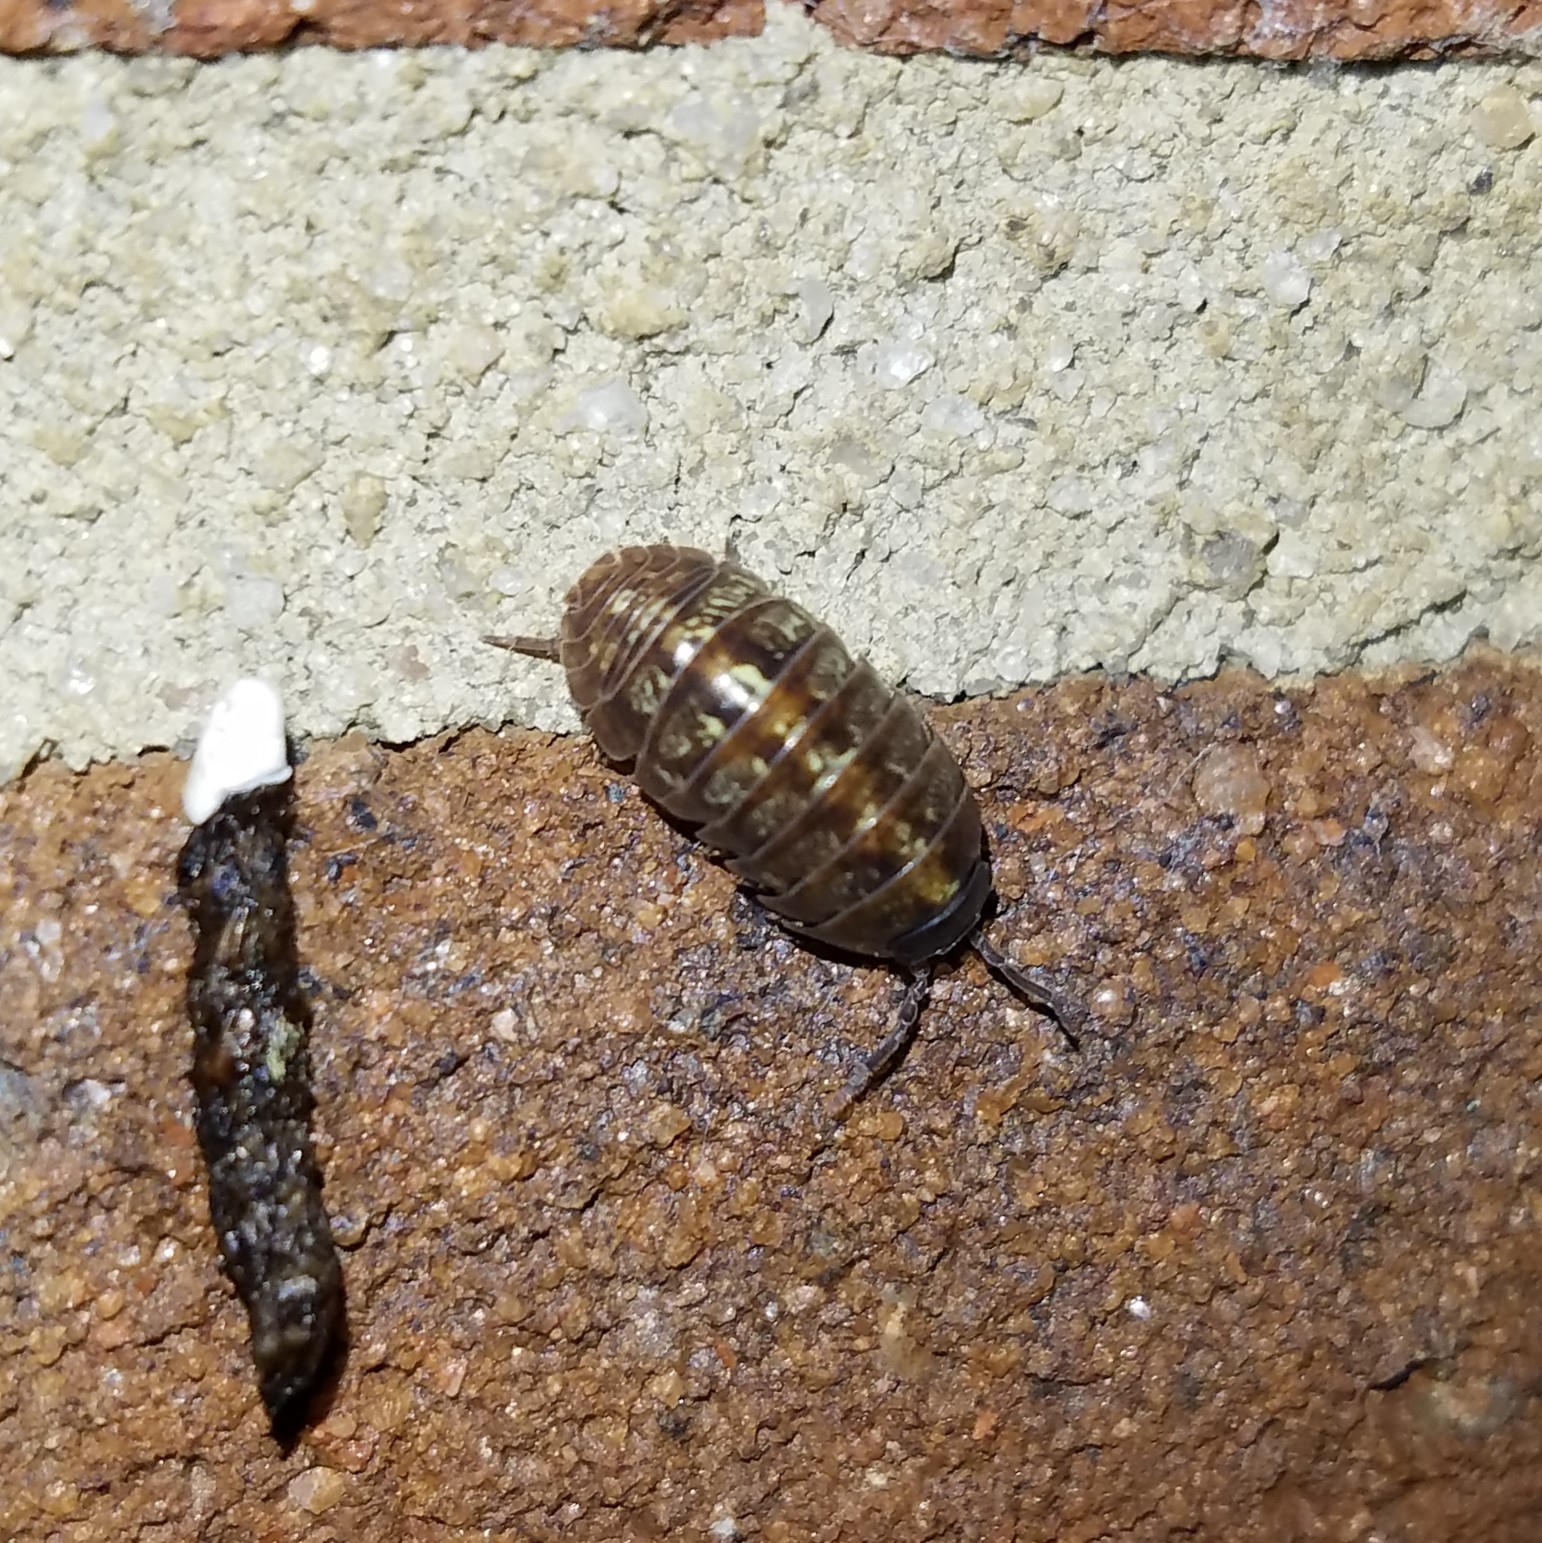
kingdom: Animalia
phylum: Arthropoda
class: Malacostraca
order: Isopoda
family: Armadillidiidae
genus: Armadillidium
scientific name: Armadillidium vulgare
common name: Common pill woodlouse
